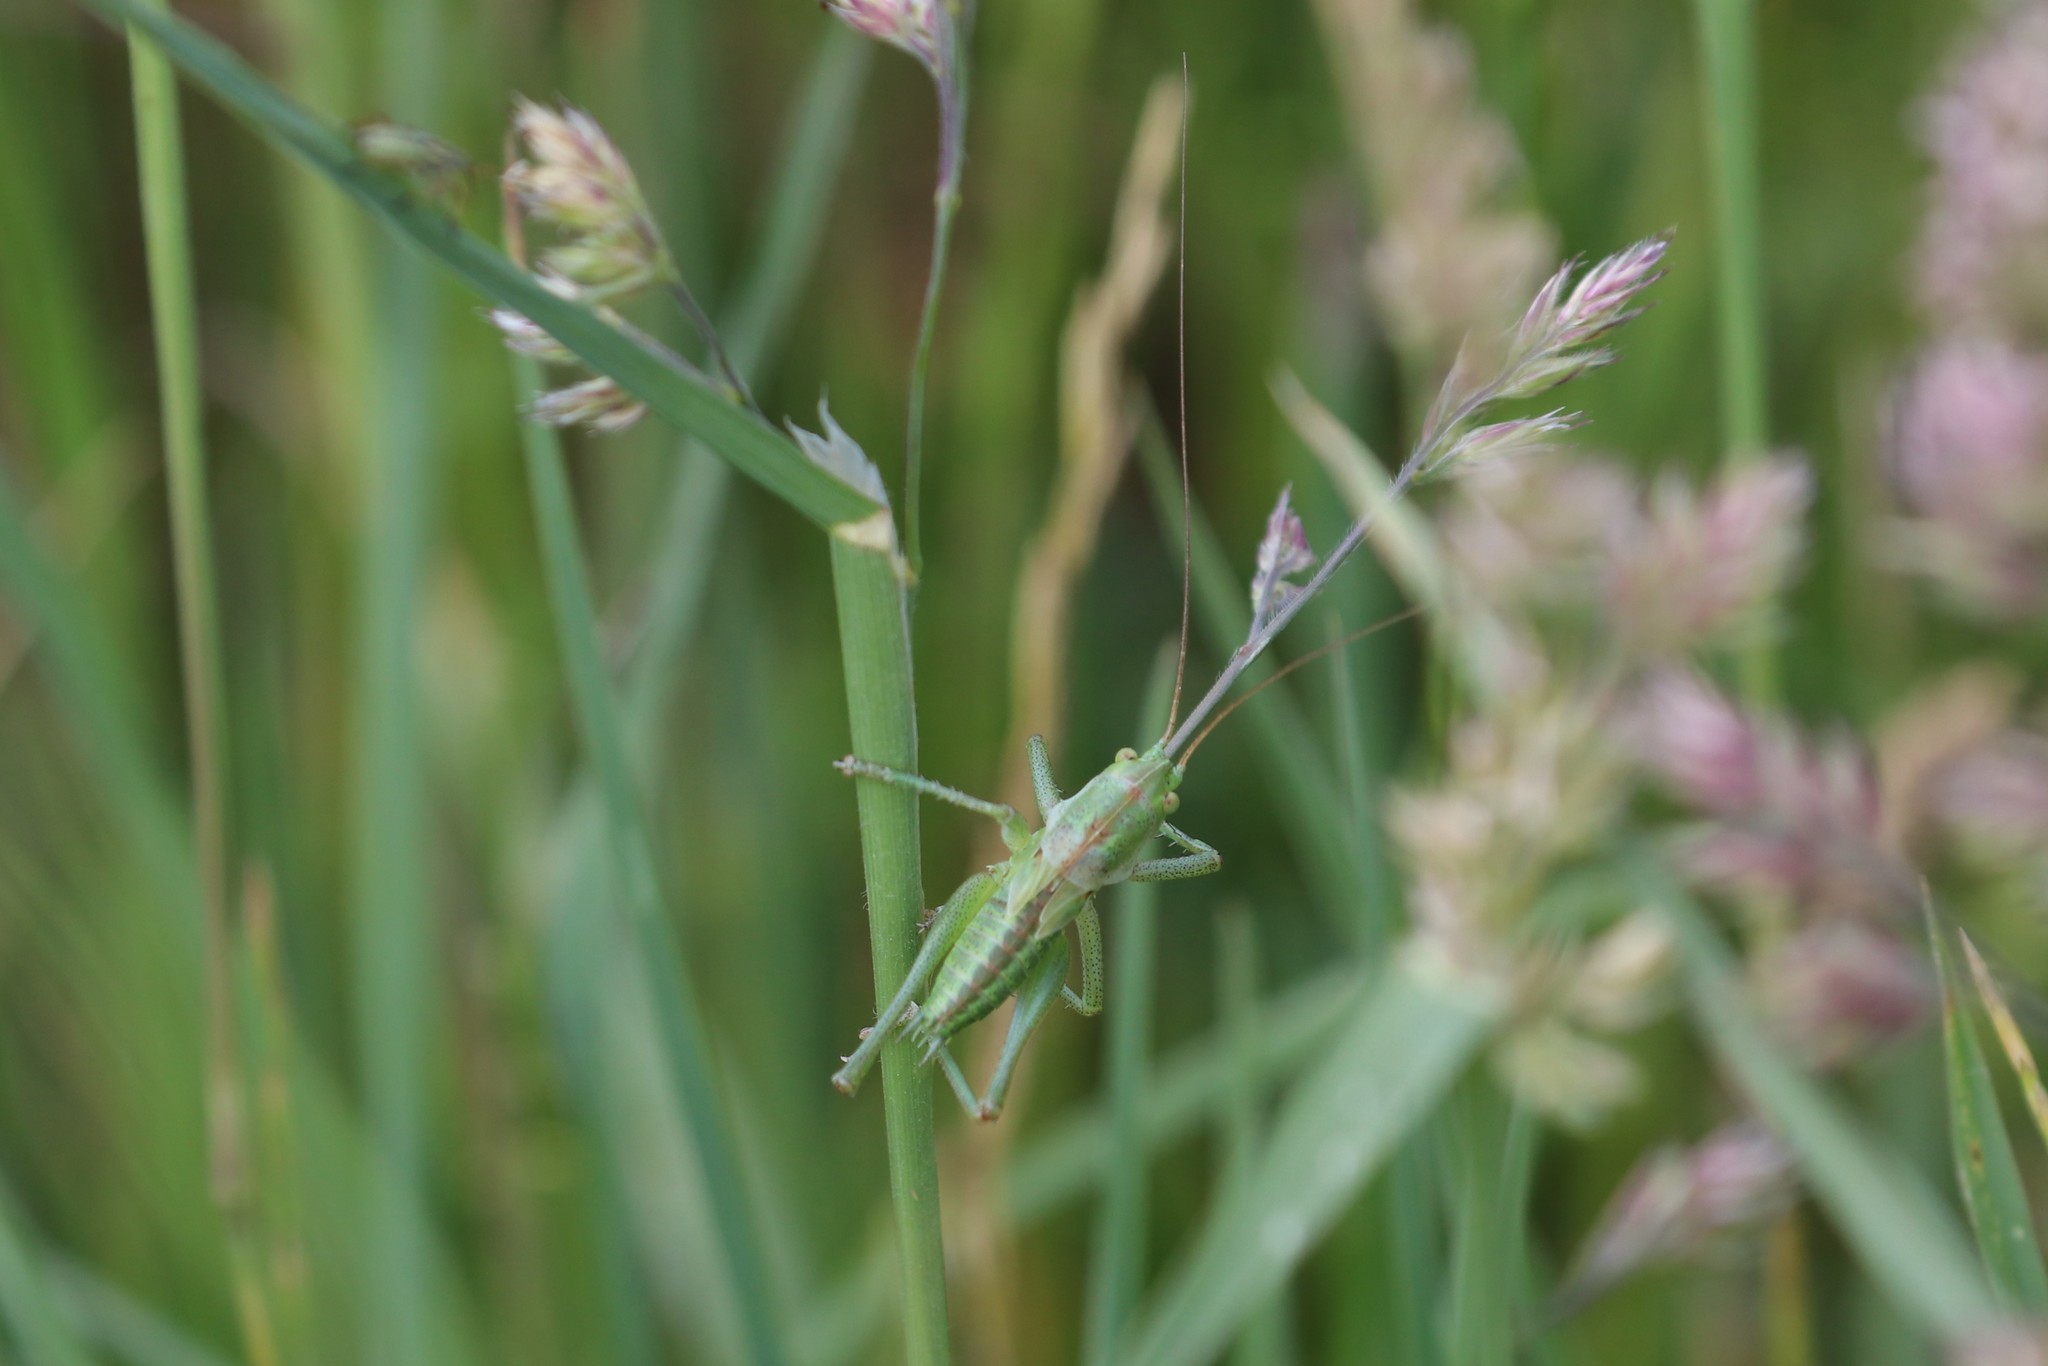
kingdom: Animalia
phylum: Arthropoda
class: Insecta
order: Orthoptera
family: Tettigoniidae
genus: Tettigonia
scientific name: Tettigonia
